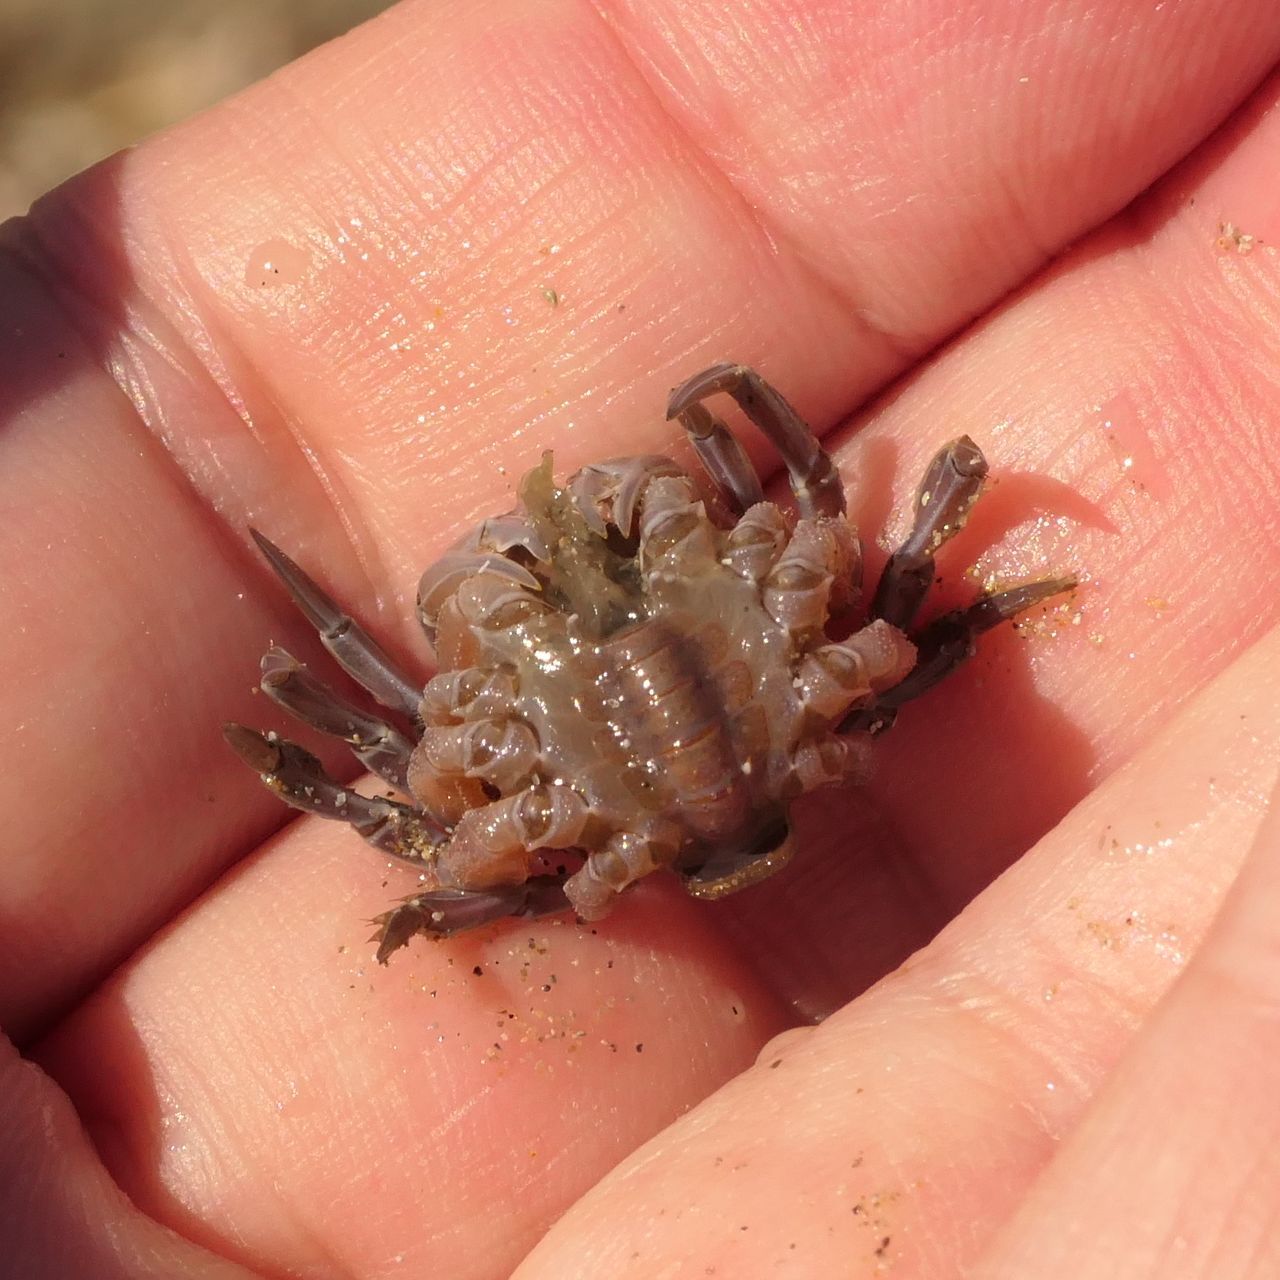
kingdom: Animalia
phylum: Arthropoda
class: Malacostraca
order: Decapoda
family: Mictyridae
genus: Mictyris
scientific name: Mictyris platycheles
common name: Dark blue soldier crab
